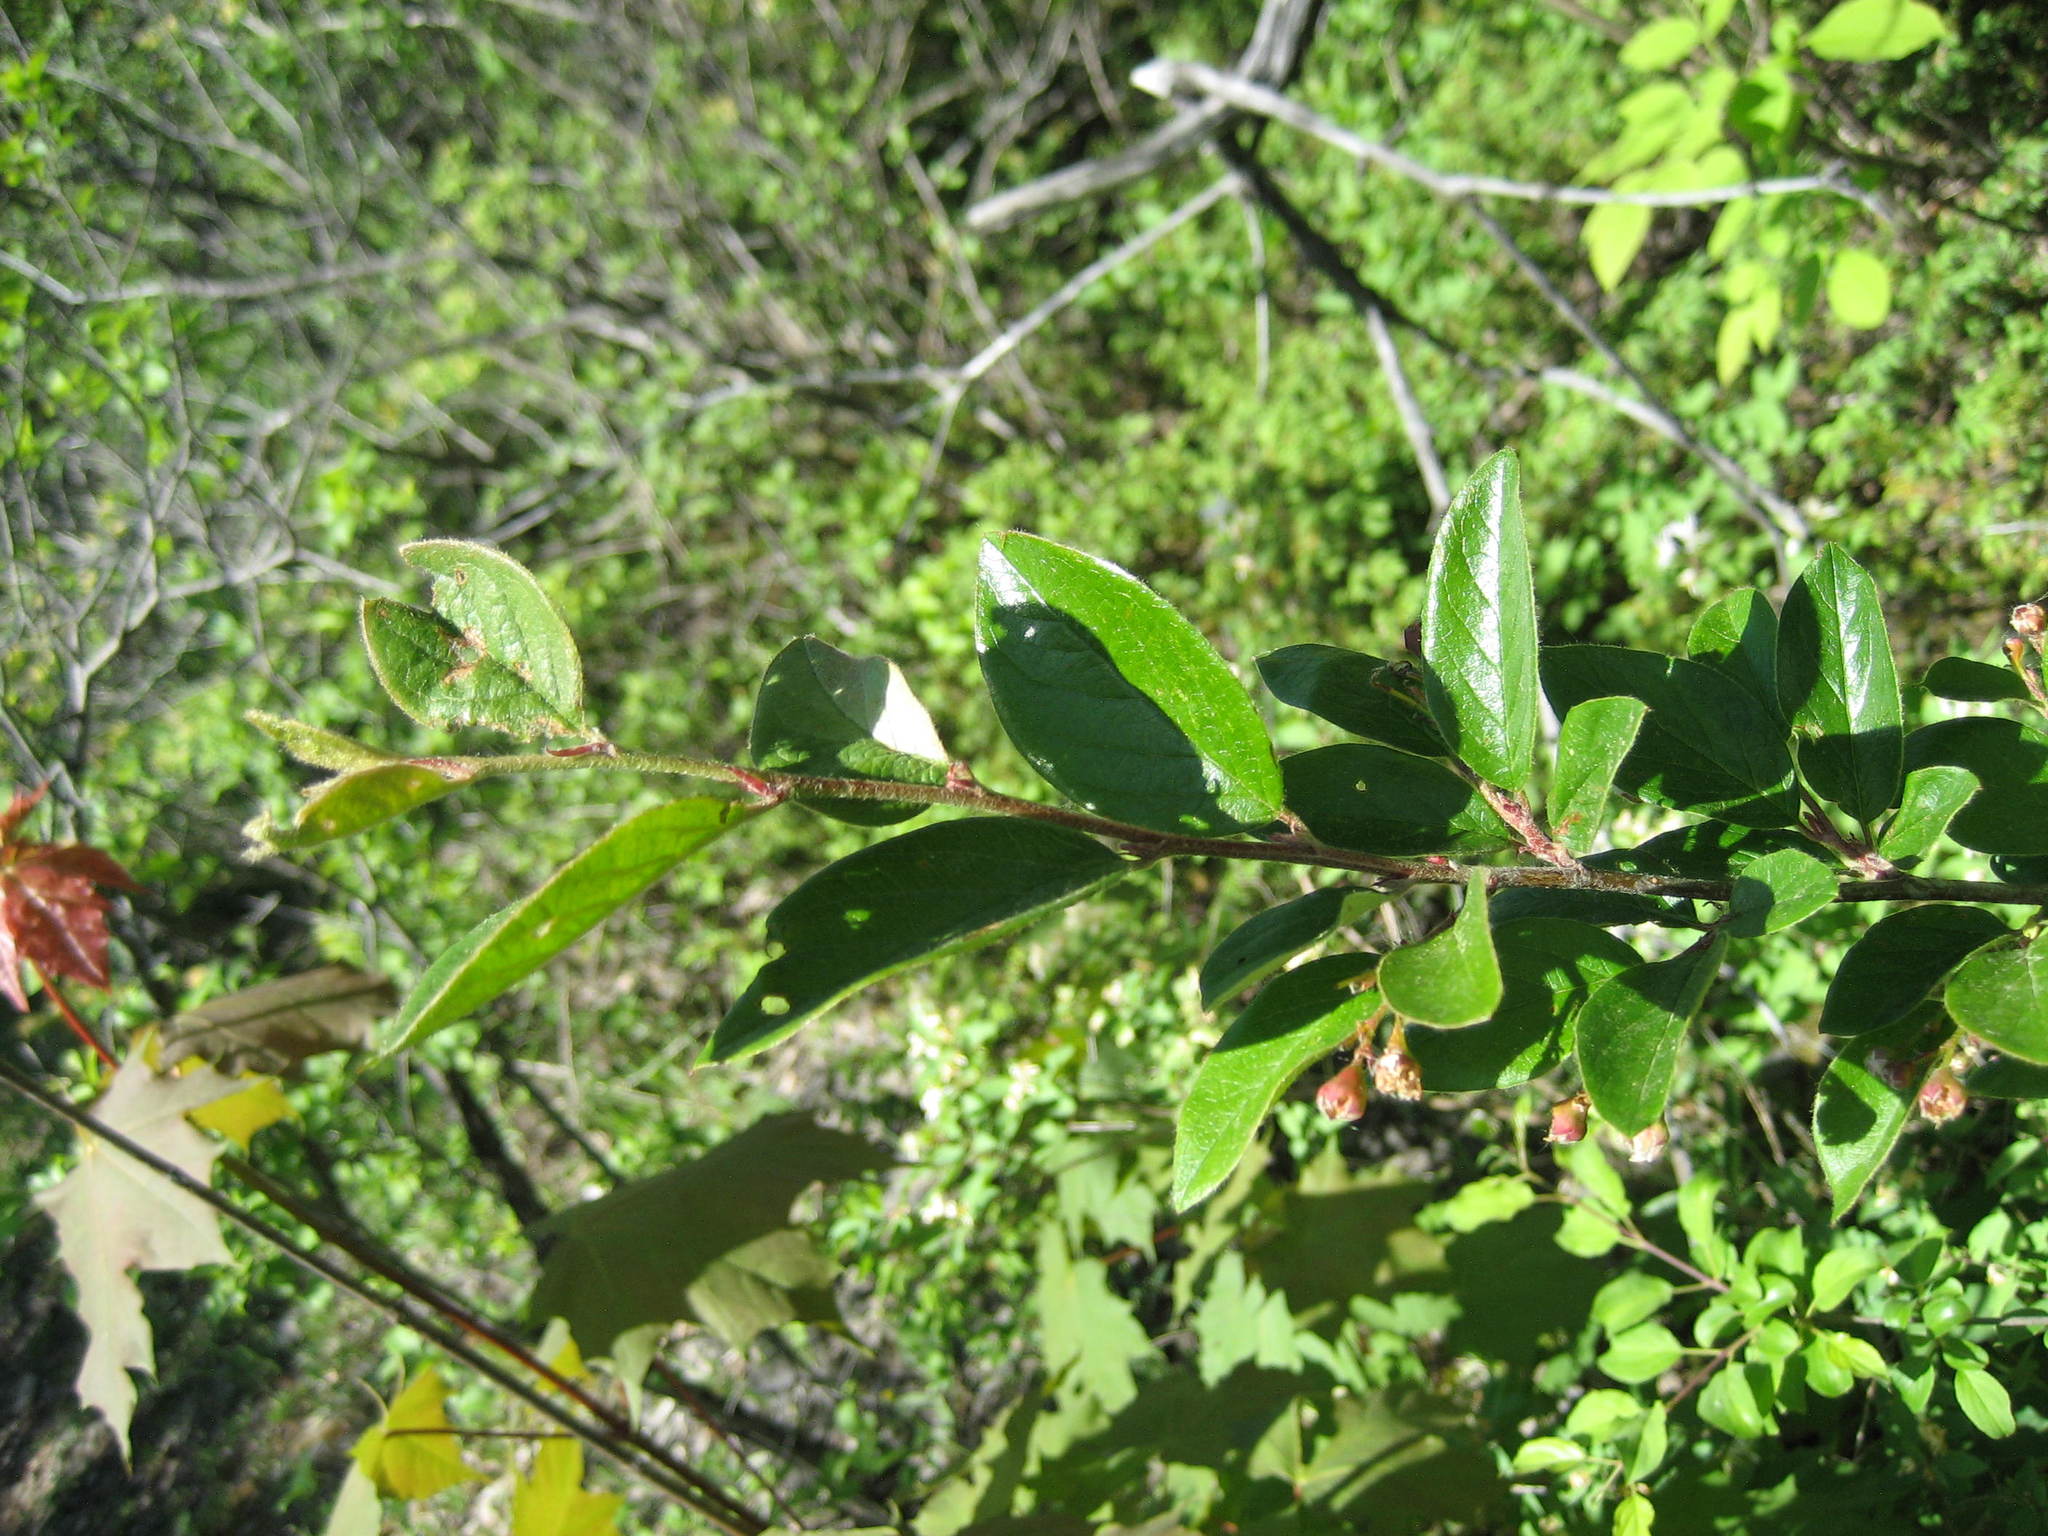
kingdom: Plantae
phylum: Tracheophyta
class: Magnoliopsida
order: Rosales
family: Rosaceae
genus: Cotoneaster
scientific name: Cotoneaster acutifolius
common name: Peking cotoneaster
